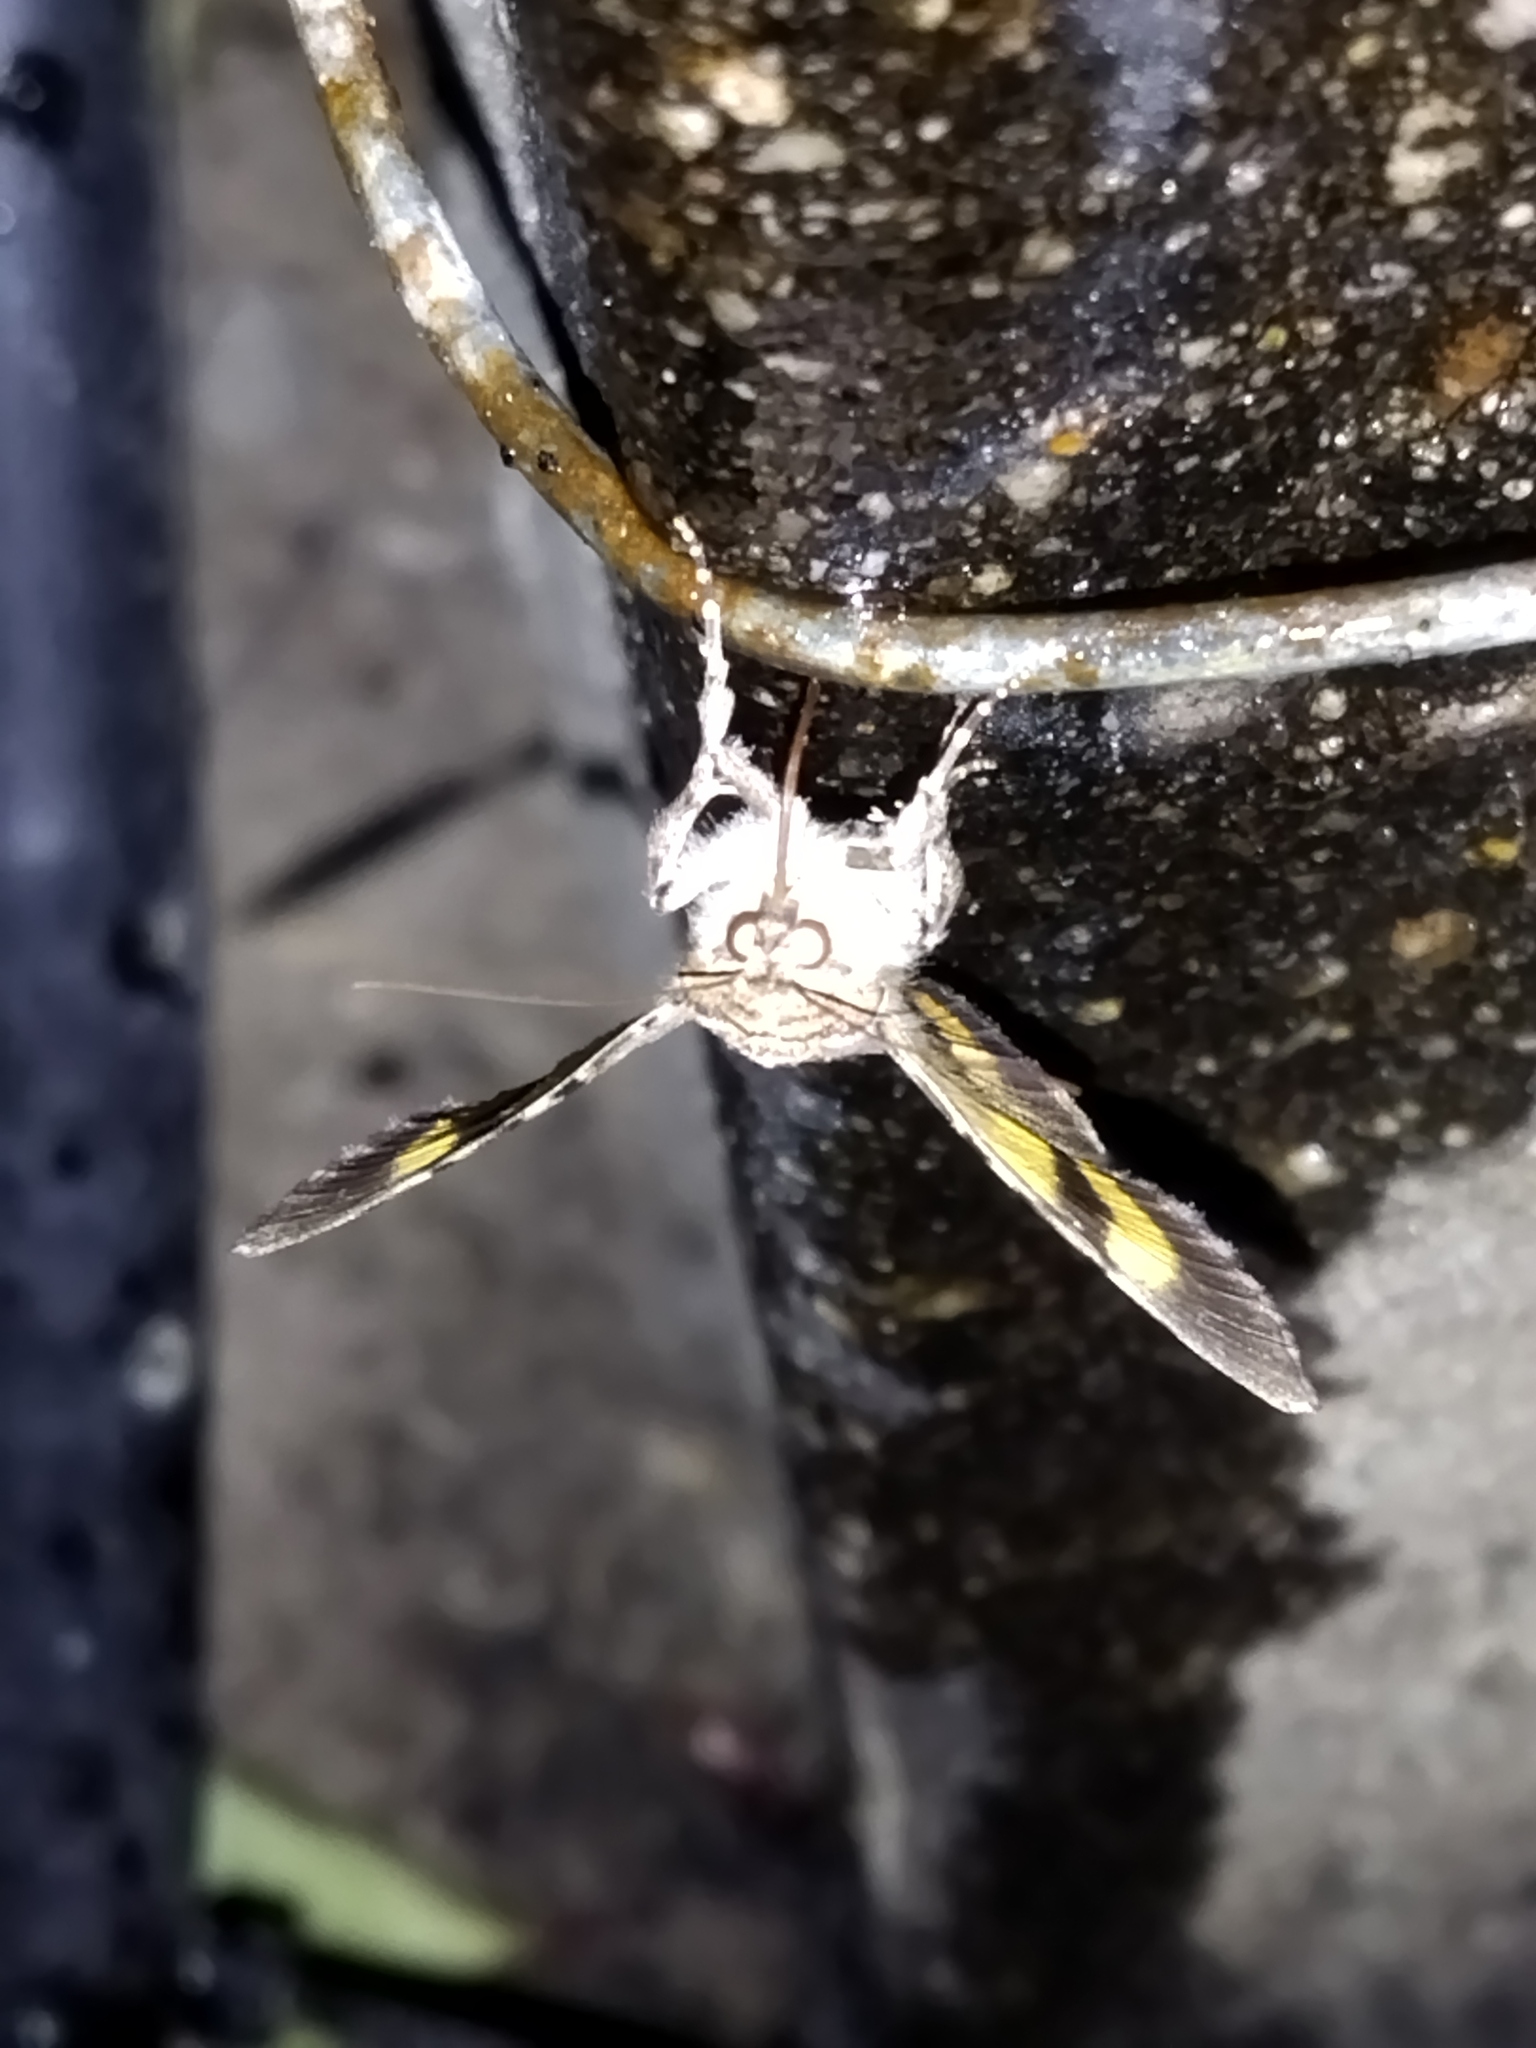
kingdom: Animalia
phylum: Arthropoda
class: Insecta
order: Lepidoptera
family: Erebidae
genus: Catocala
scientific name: Catocala hymenaea
